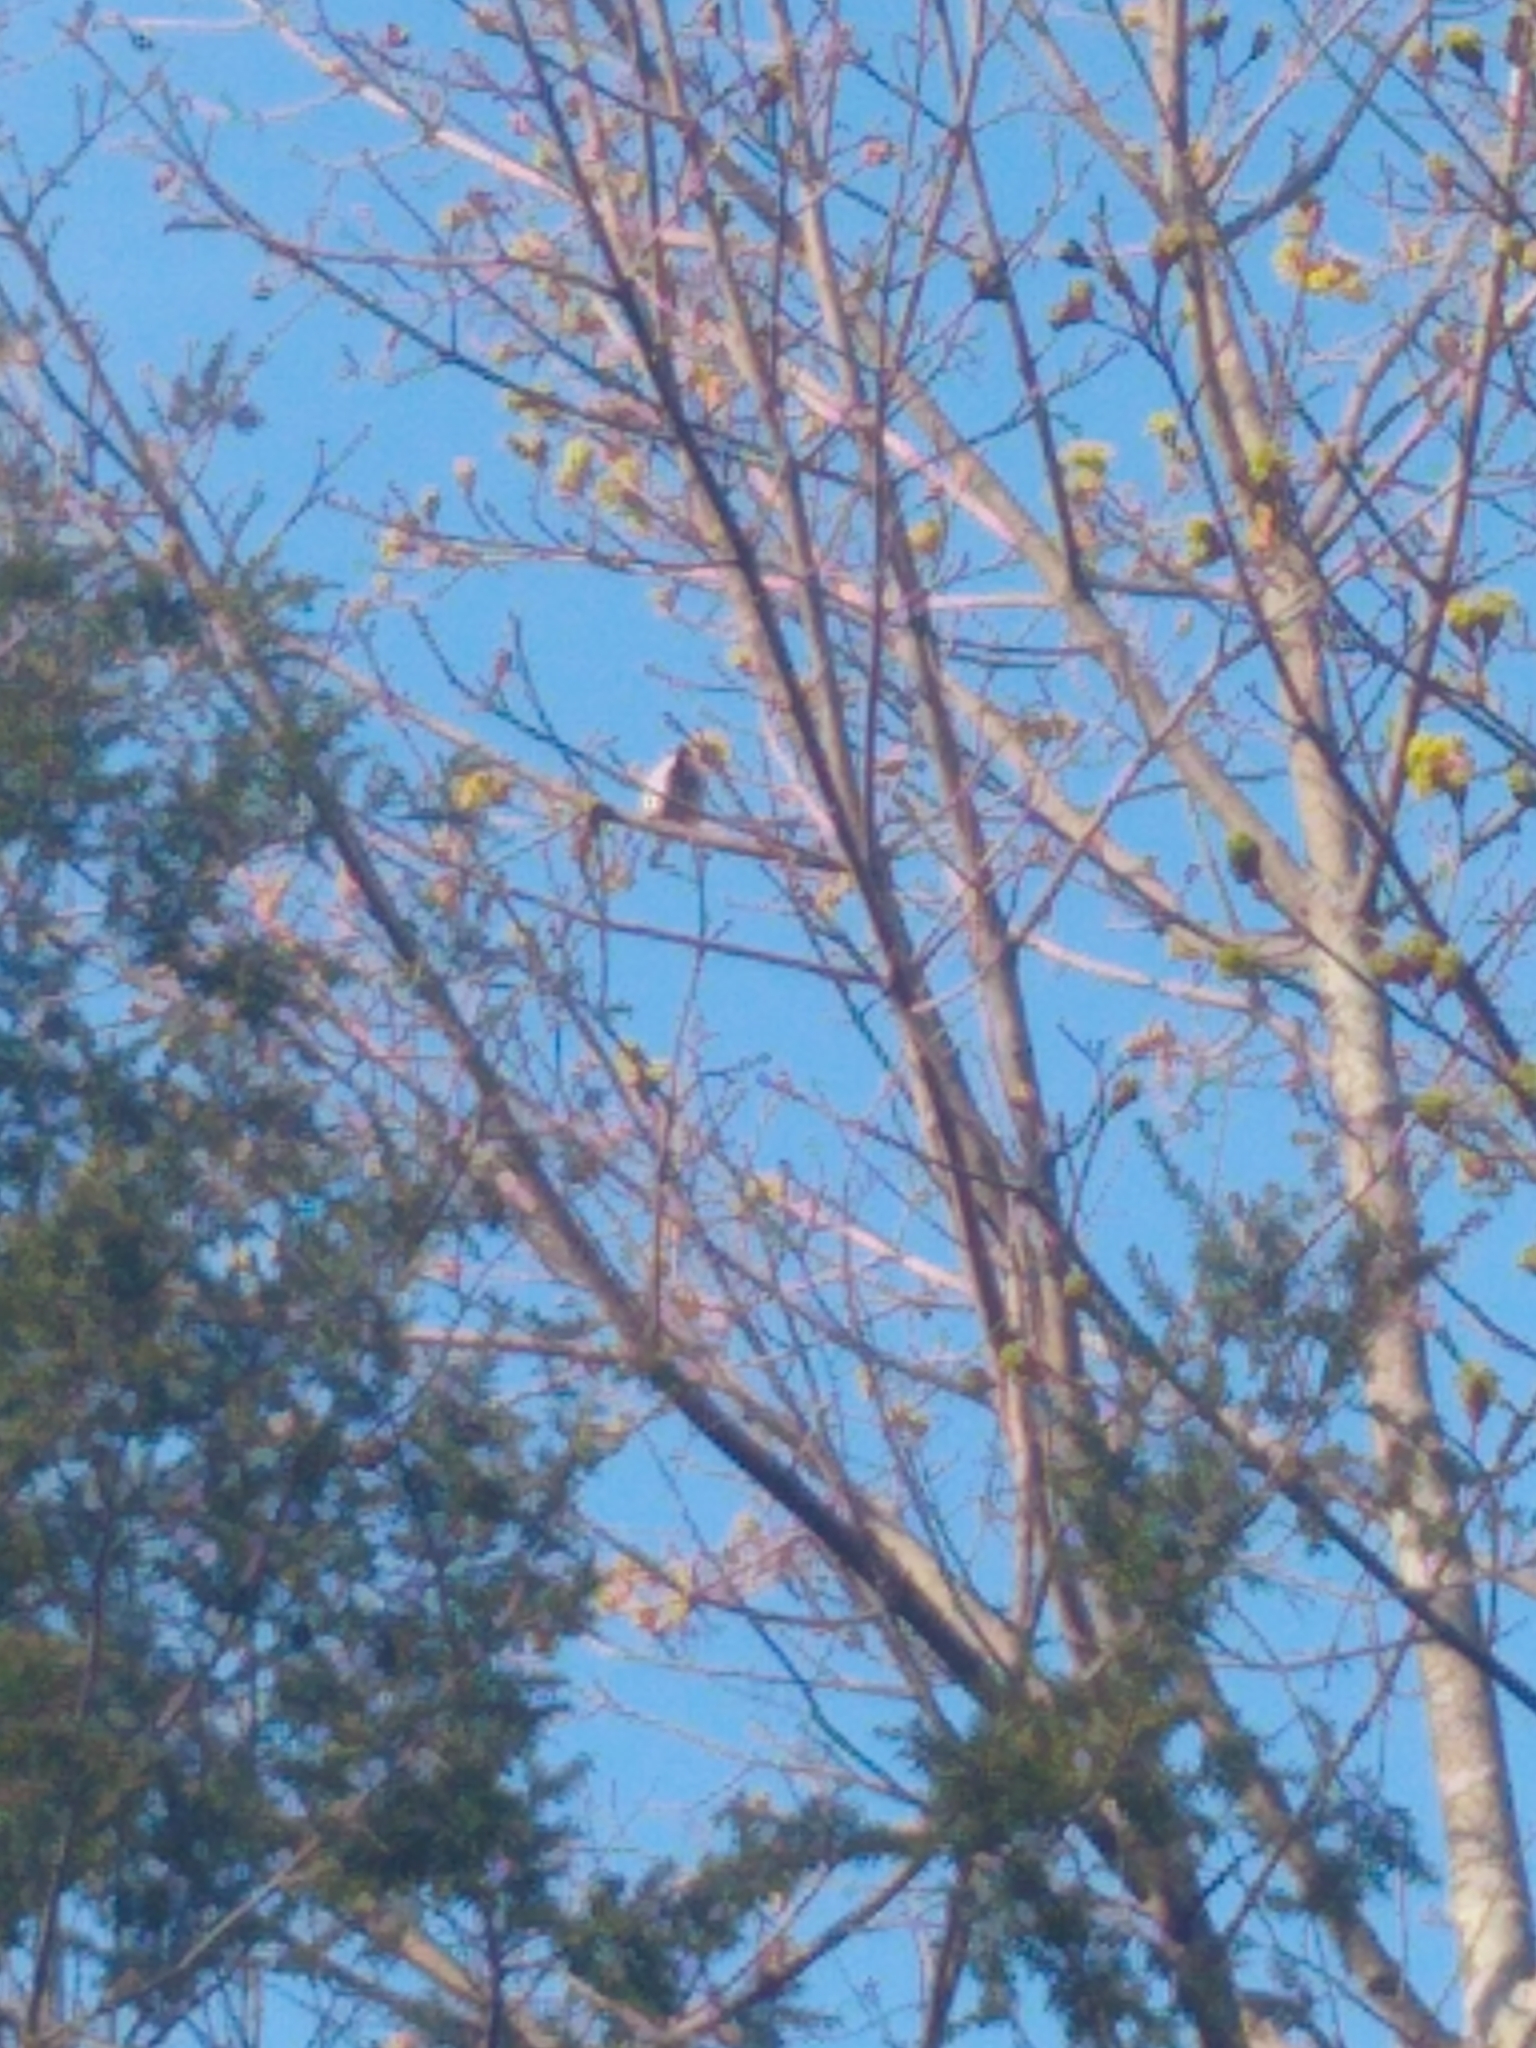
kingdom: Animalia
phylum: Chordata
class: Aves
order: Passeriformes
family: Passeridae
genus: Passer
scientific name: Passer domesticus
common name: House sparrow
